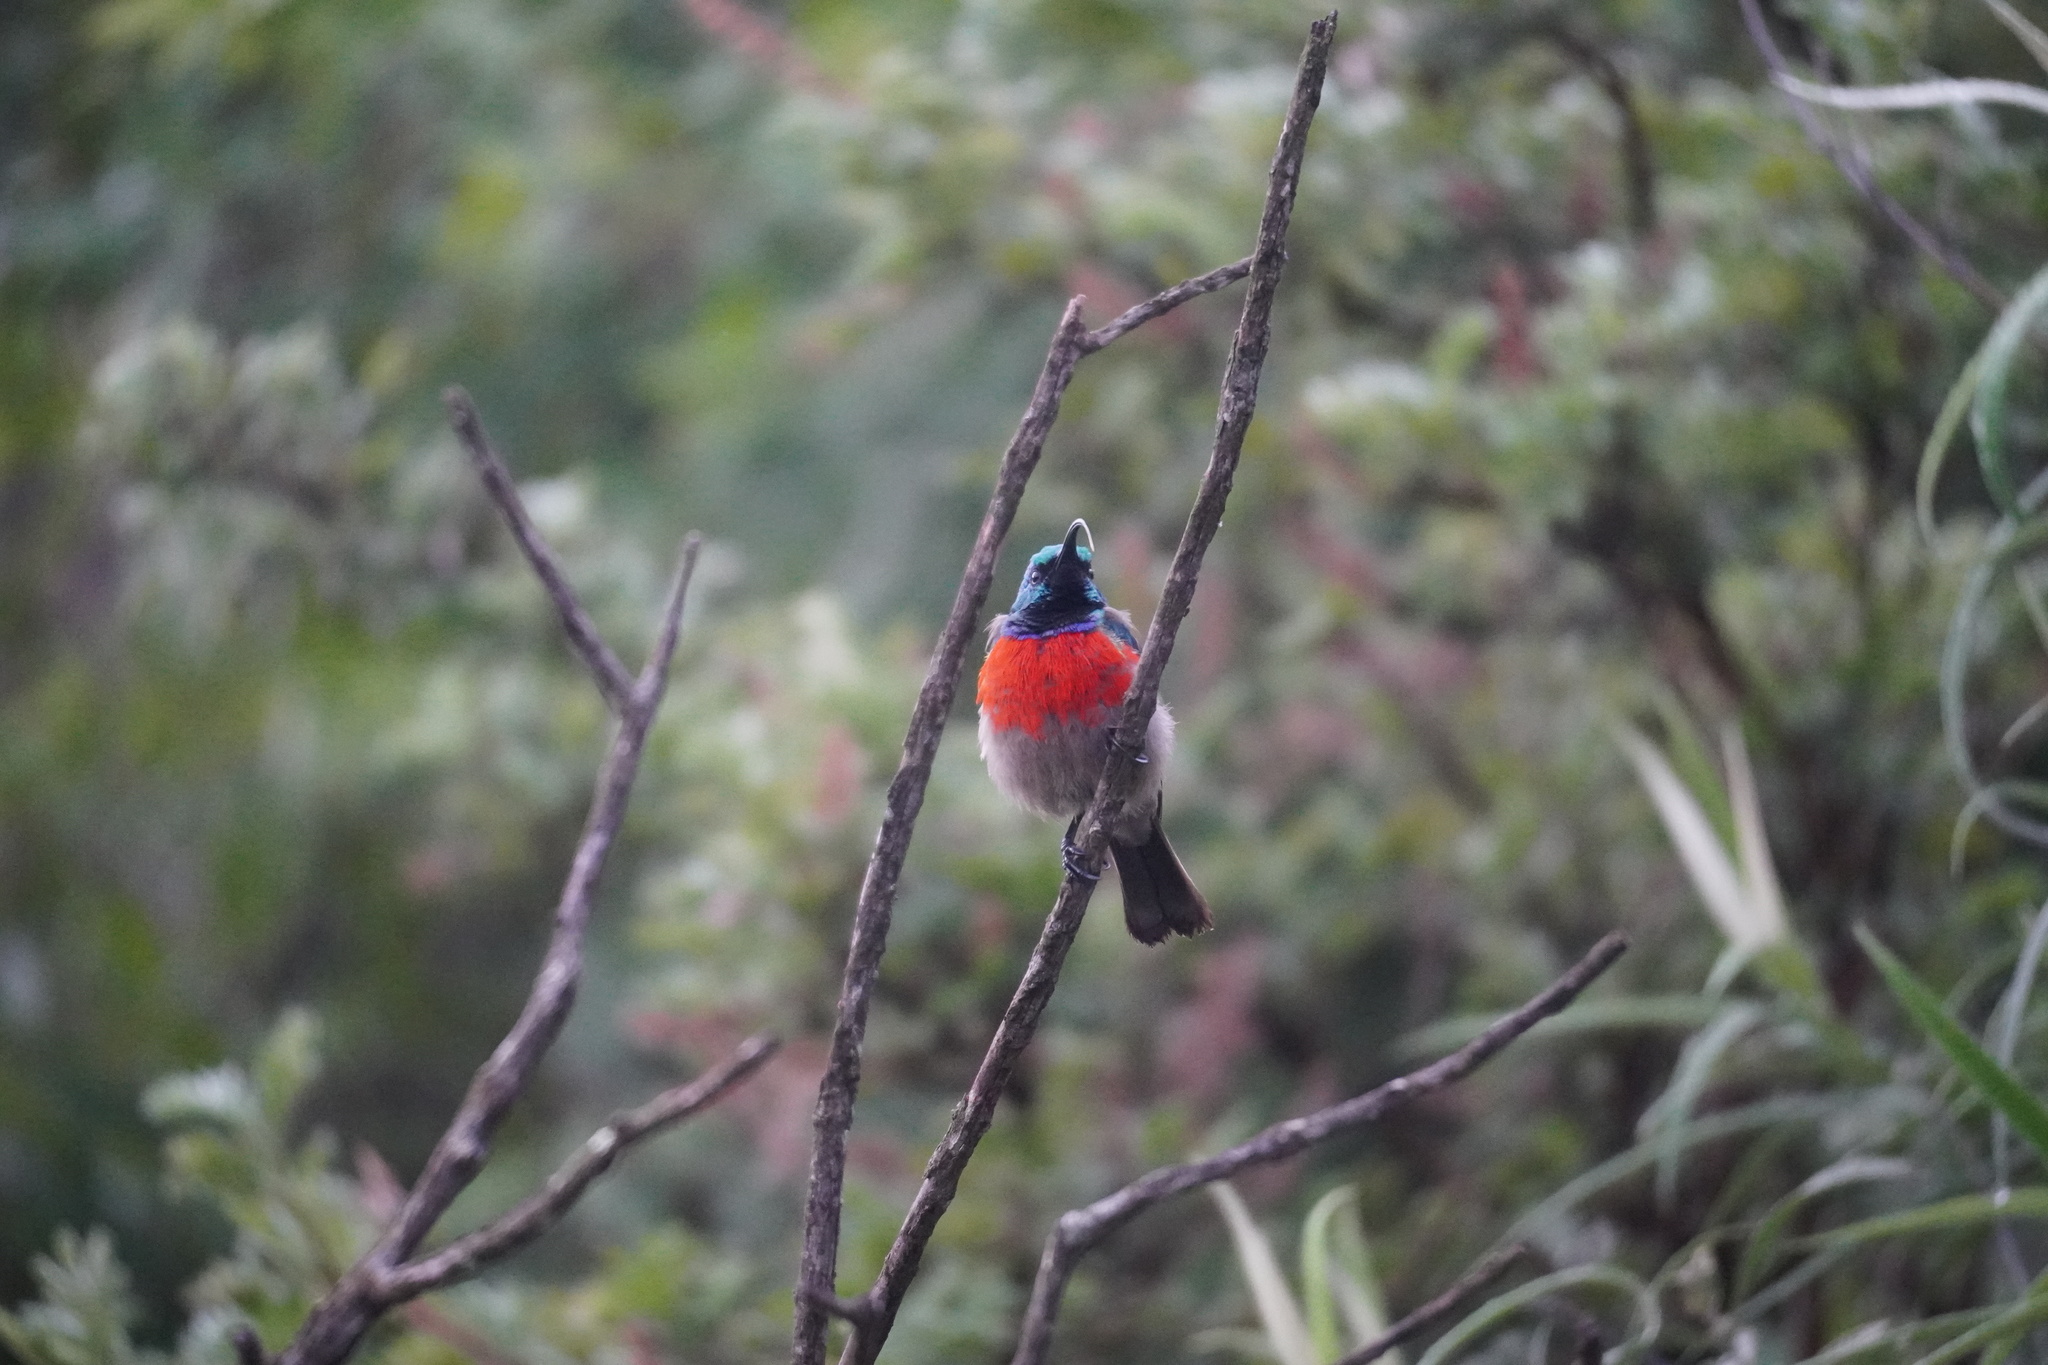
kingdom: Animalia
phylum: Chordata
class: Aves
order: Passeriformes
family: Nectariniidae
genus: Cinnyris
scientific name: Cinnyris afer
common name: Greater double-collared sunbird
